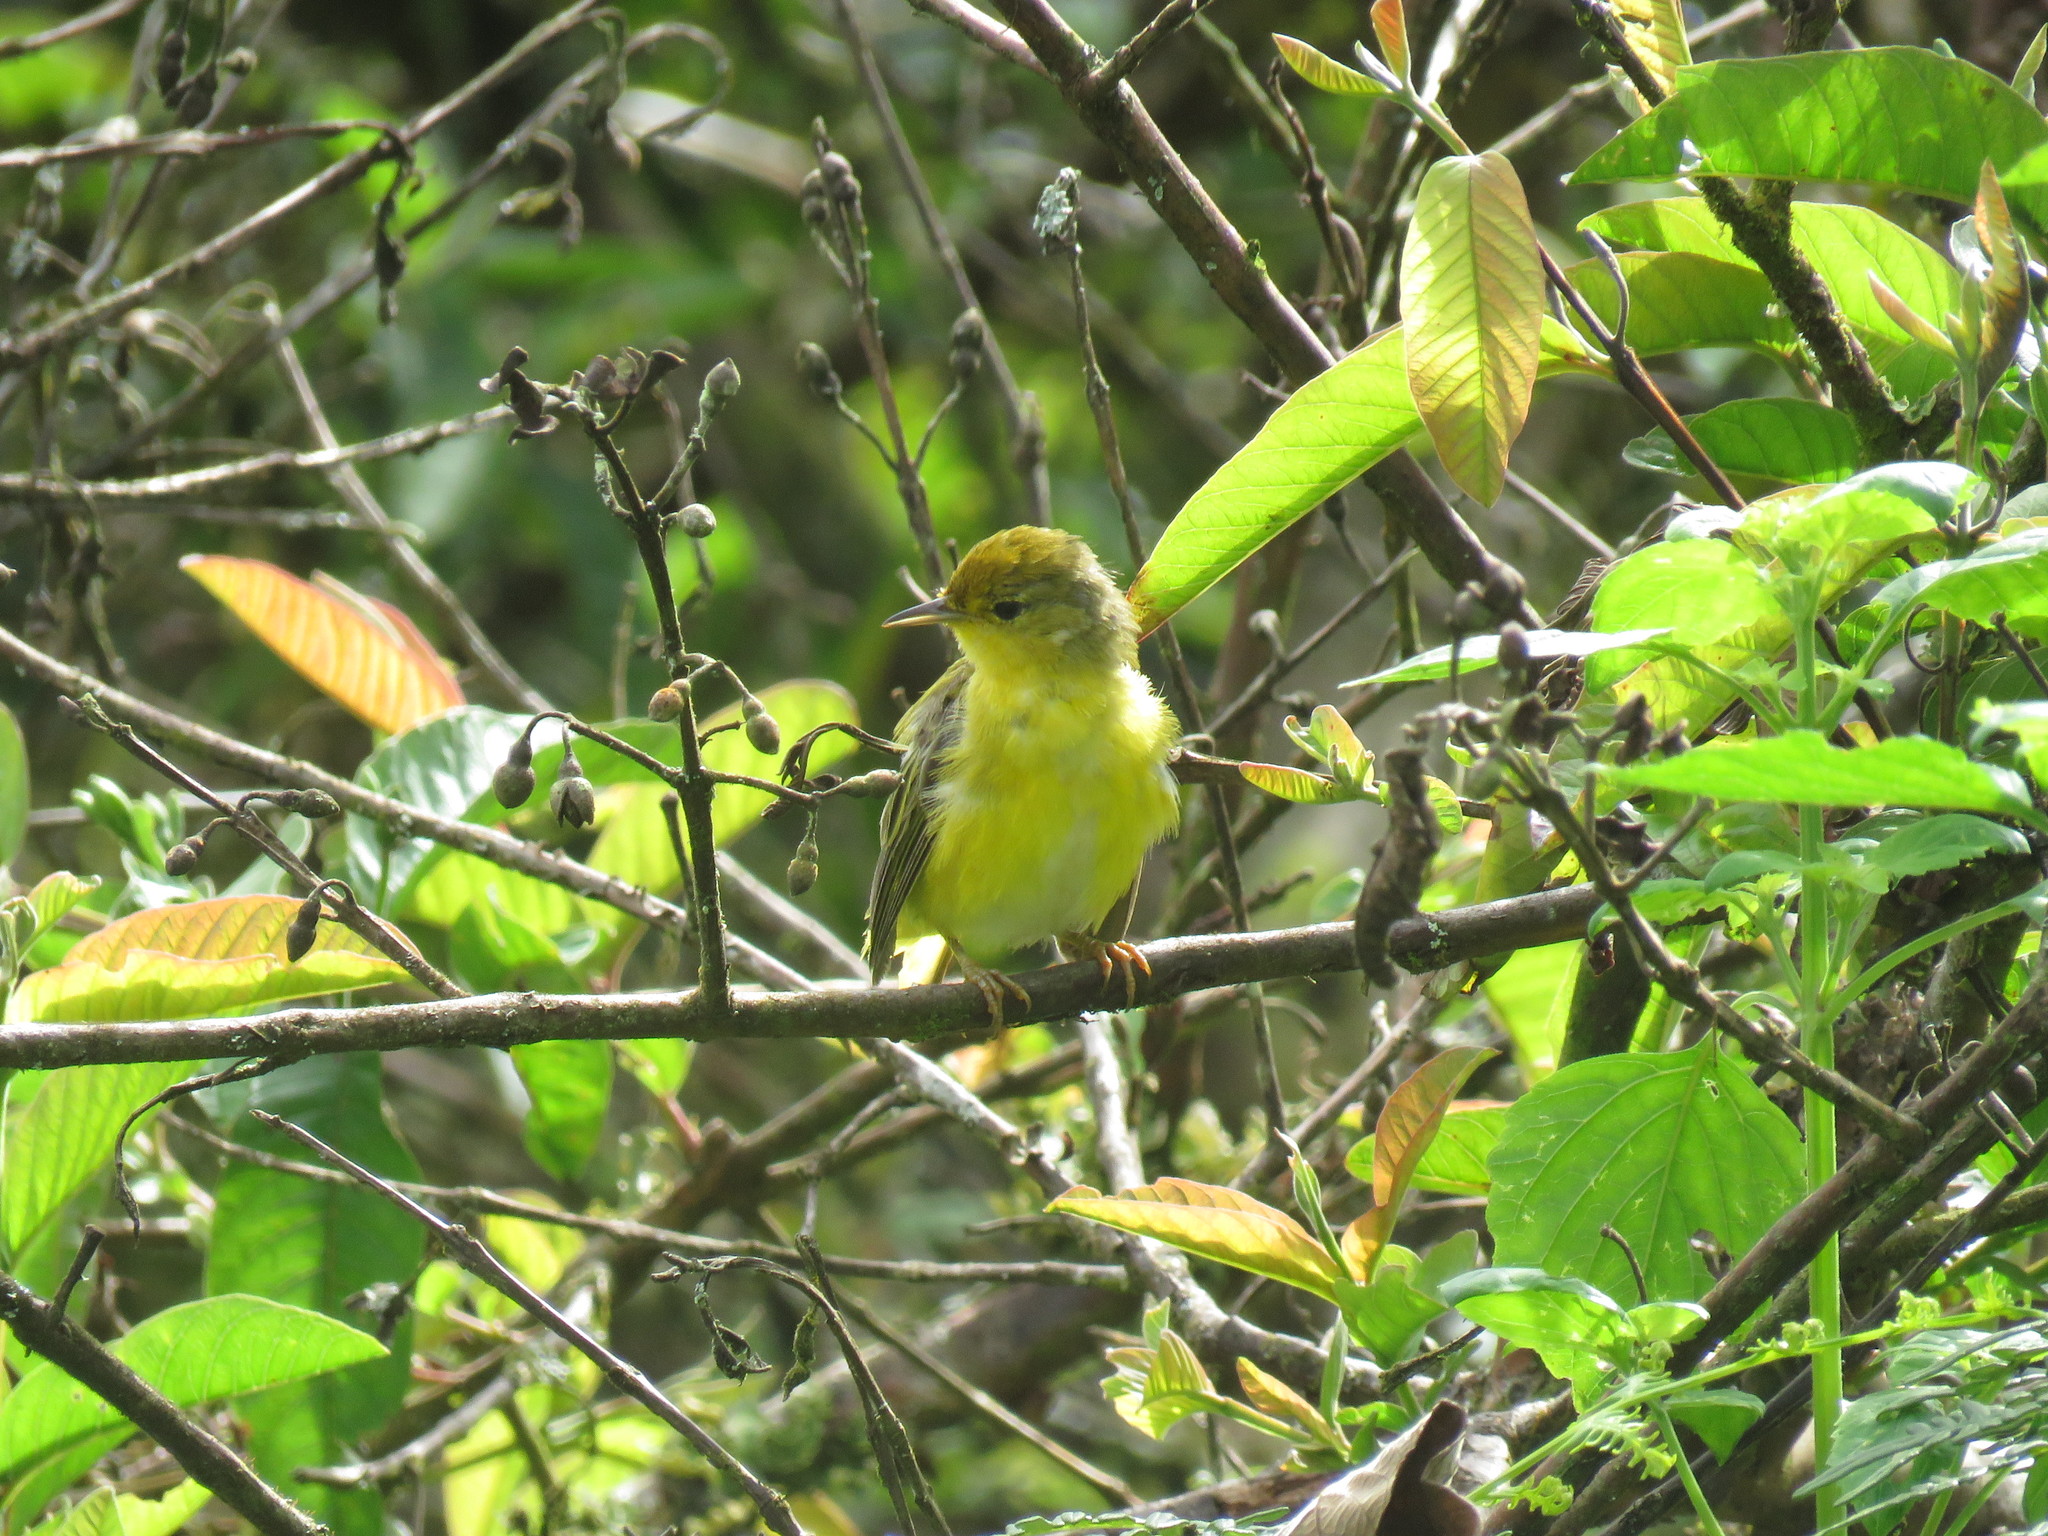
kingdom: Animalia
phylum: Chordata
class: Aves
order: Passeriformes
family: Parulidae
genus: Setophaga
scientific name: Setophaga petechia
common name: Yellow warbler
